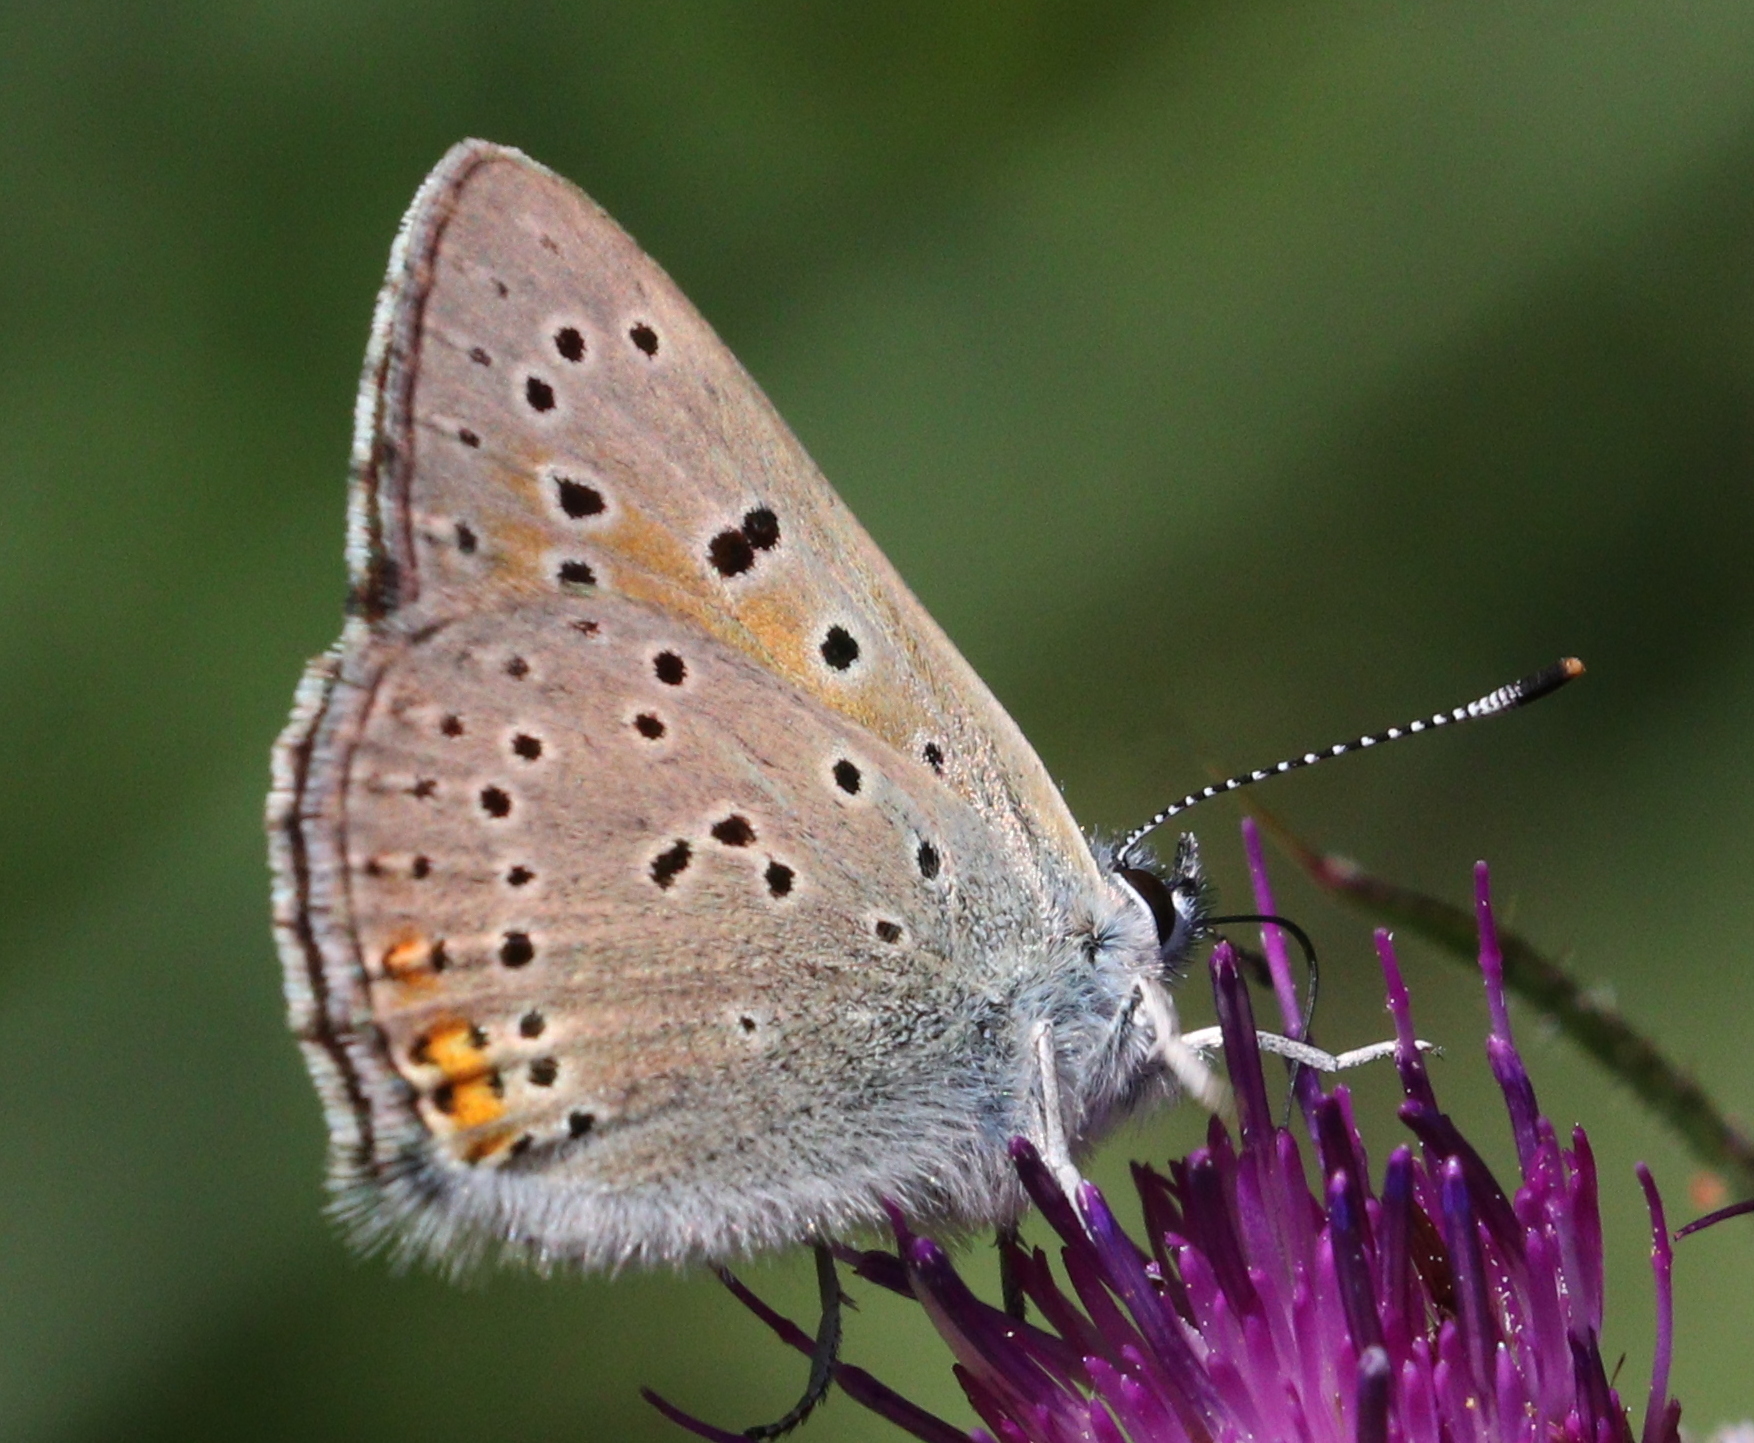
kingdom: Animalia
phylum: Arthropoda
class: Insecta
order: Lepidoptera
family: Lycaenidae
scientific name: Lycaenidae
